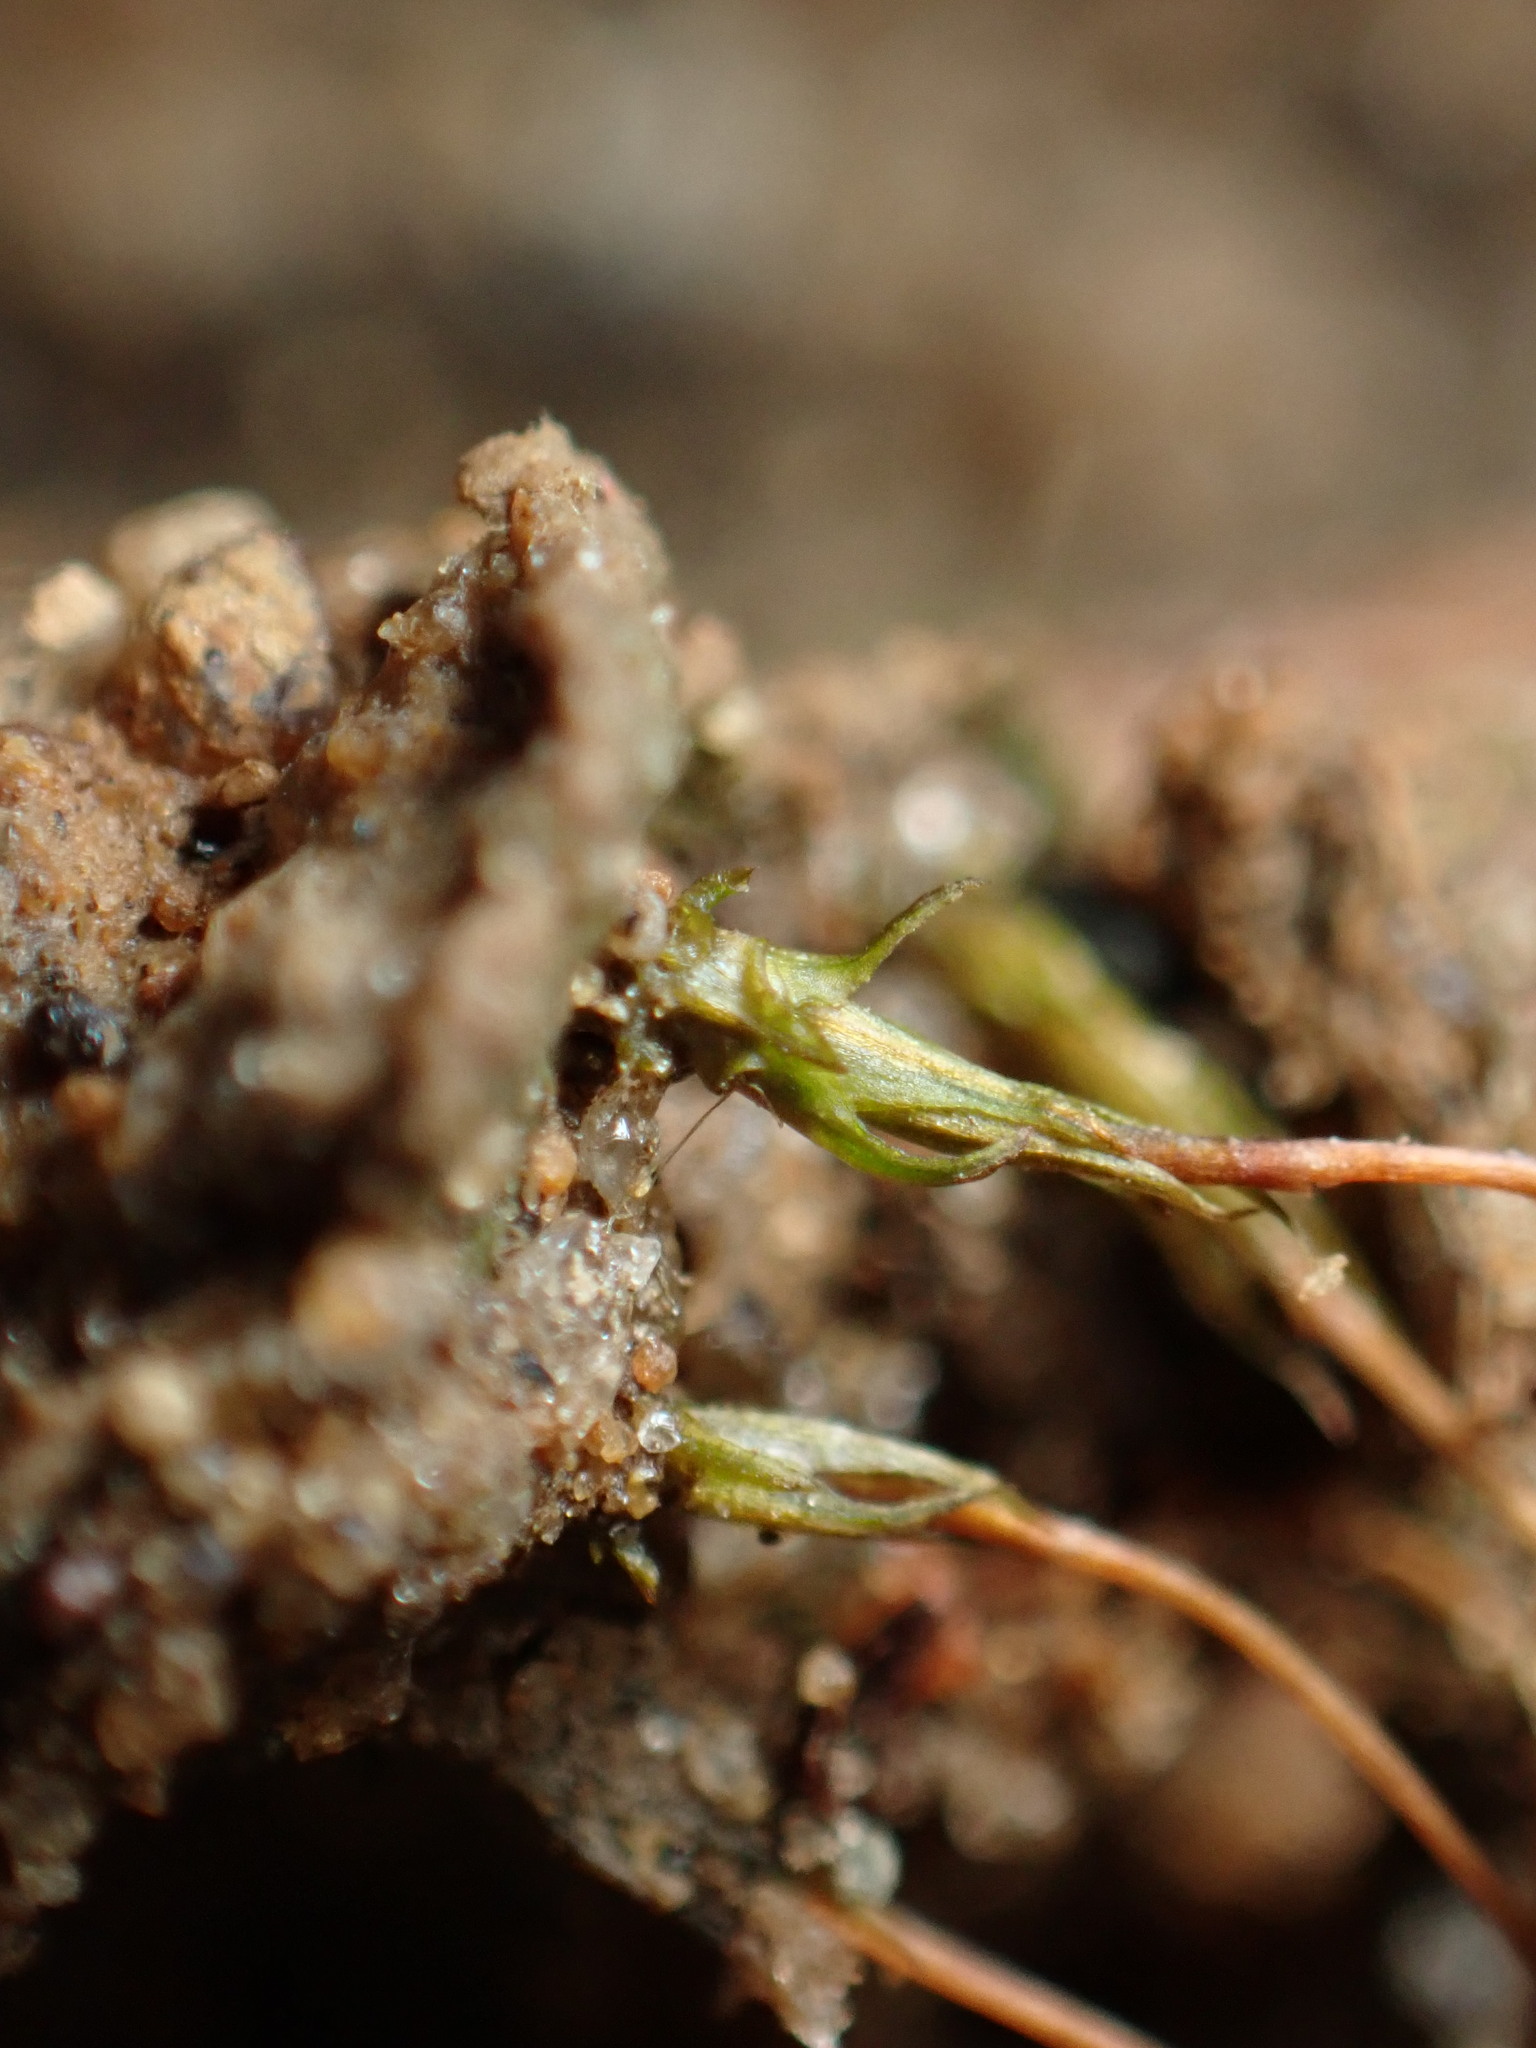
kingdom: Plantae
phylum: Bryophyta
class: Polytrichopsida
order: Polytrichales
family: Polytrichaceae
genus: Pogonatum
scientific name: Pogonatum pensilvanicum
